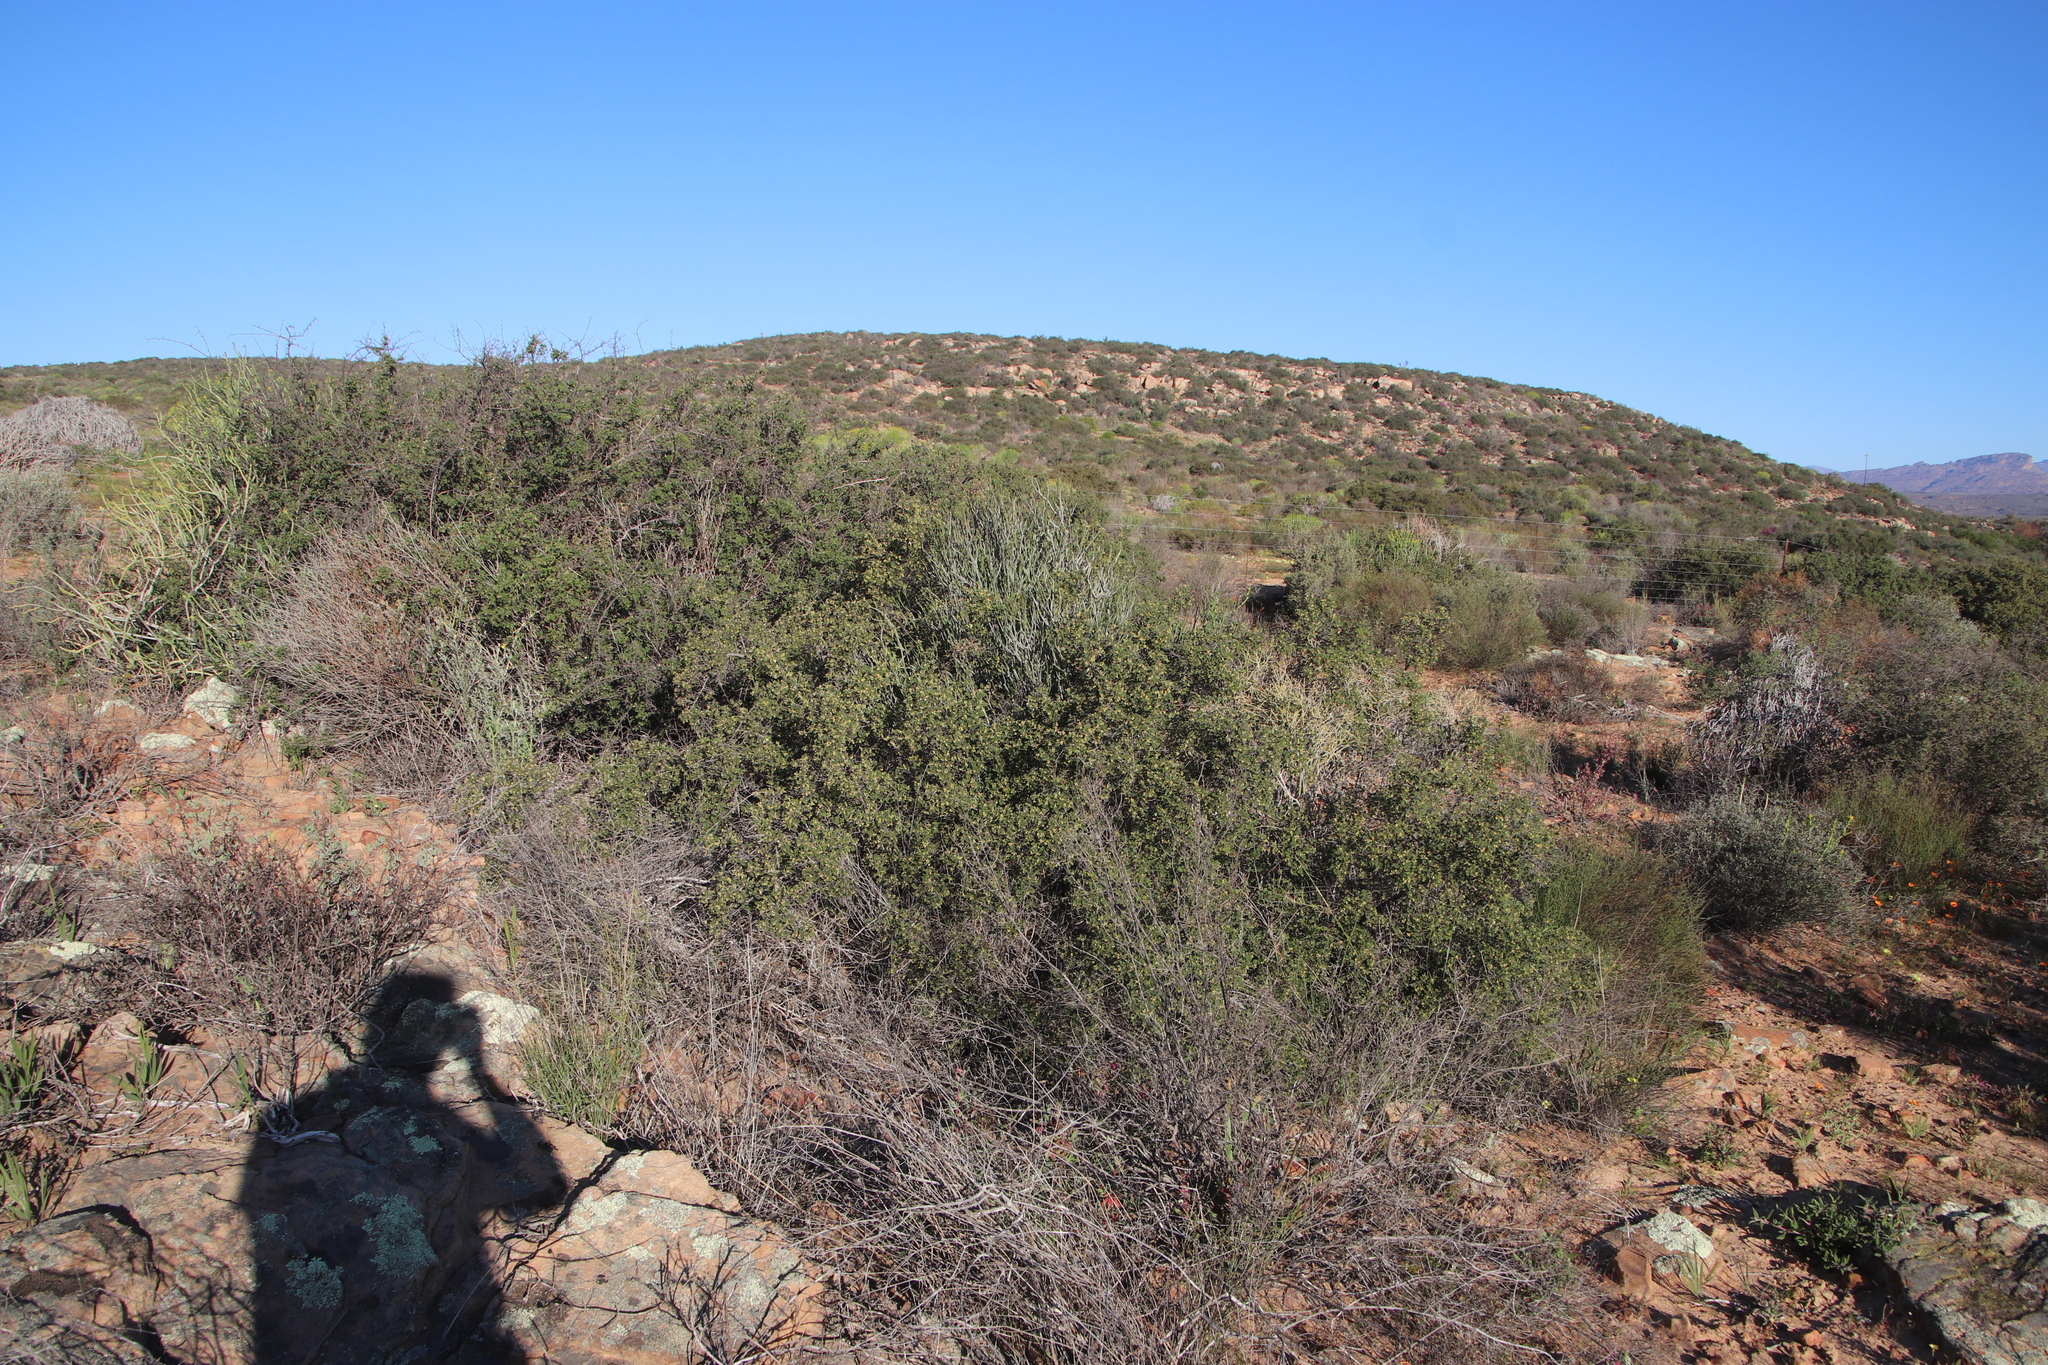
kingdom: Plantae
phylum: Tracheophyta
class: Magnoliopsida
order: Sapindales
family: Anacardiaceae
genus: Searsia
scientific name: Searsia incisa
